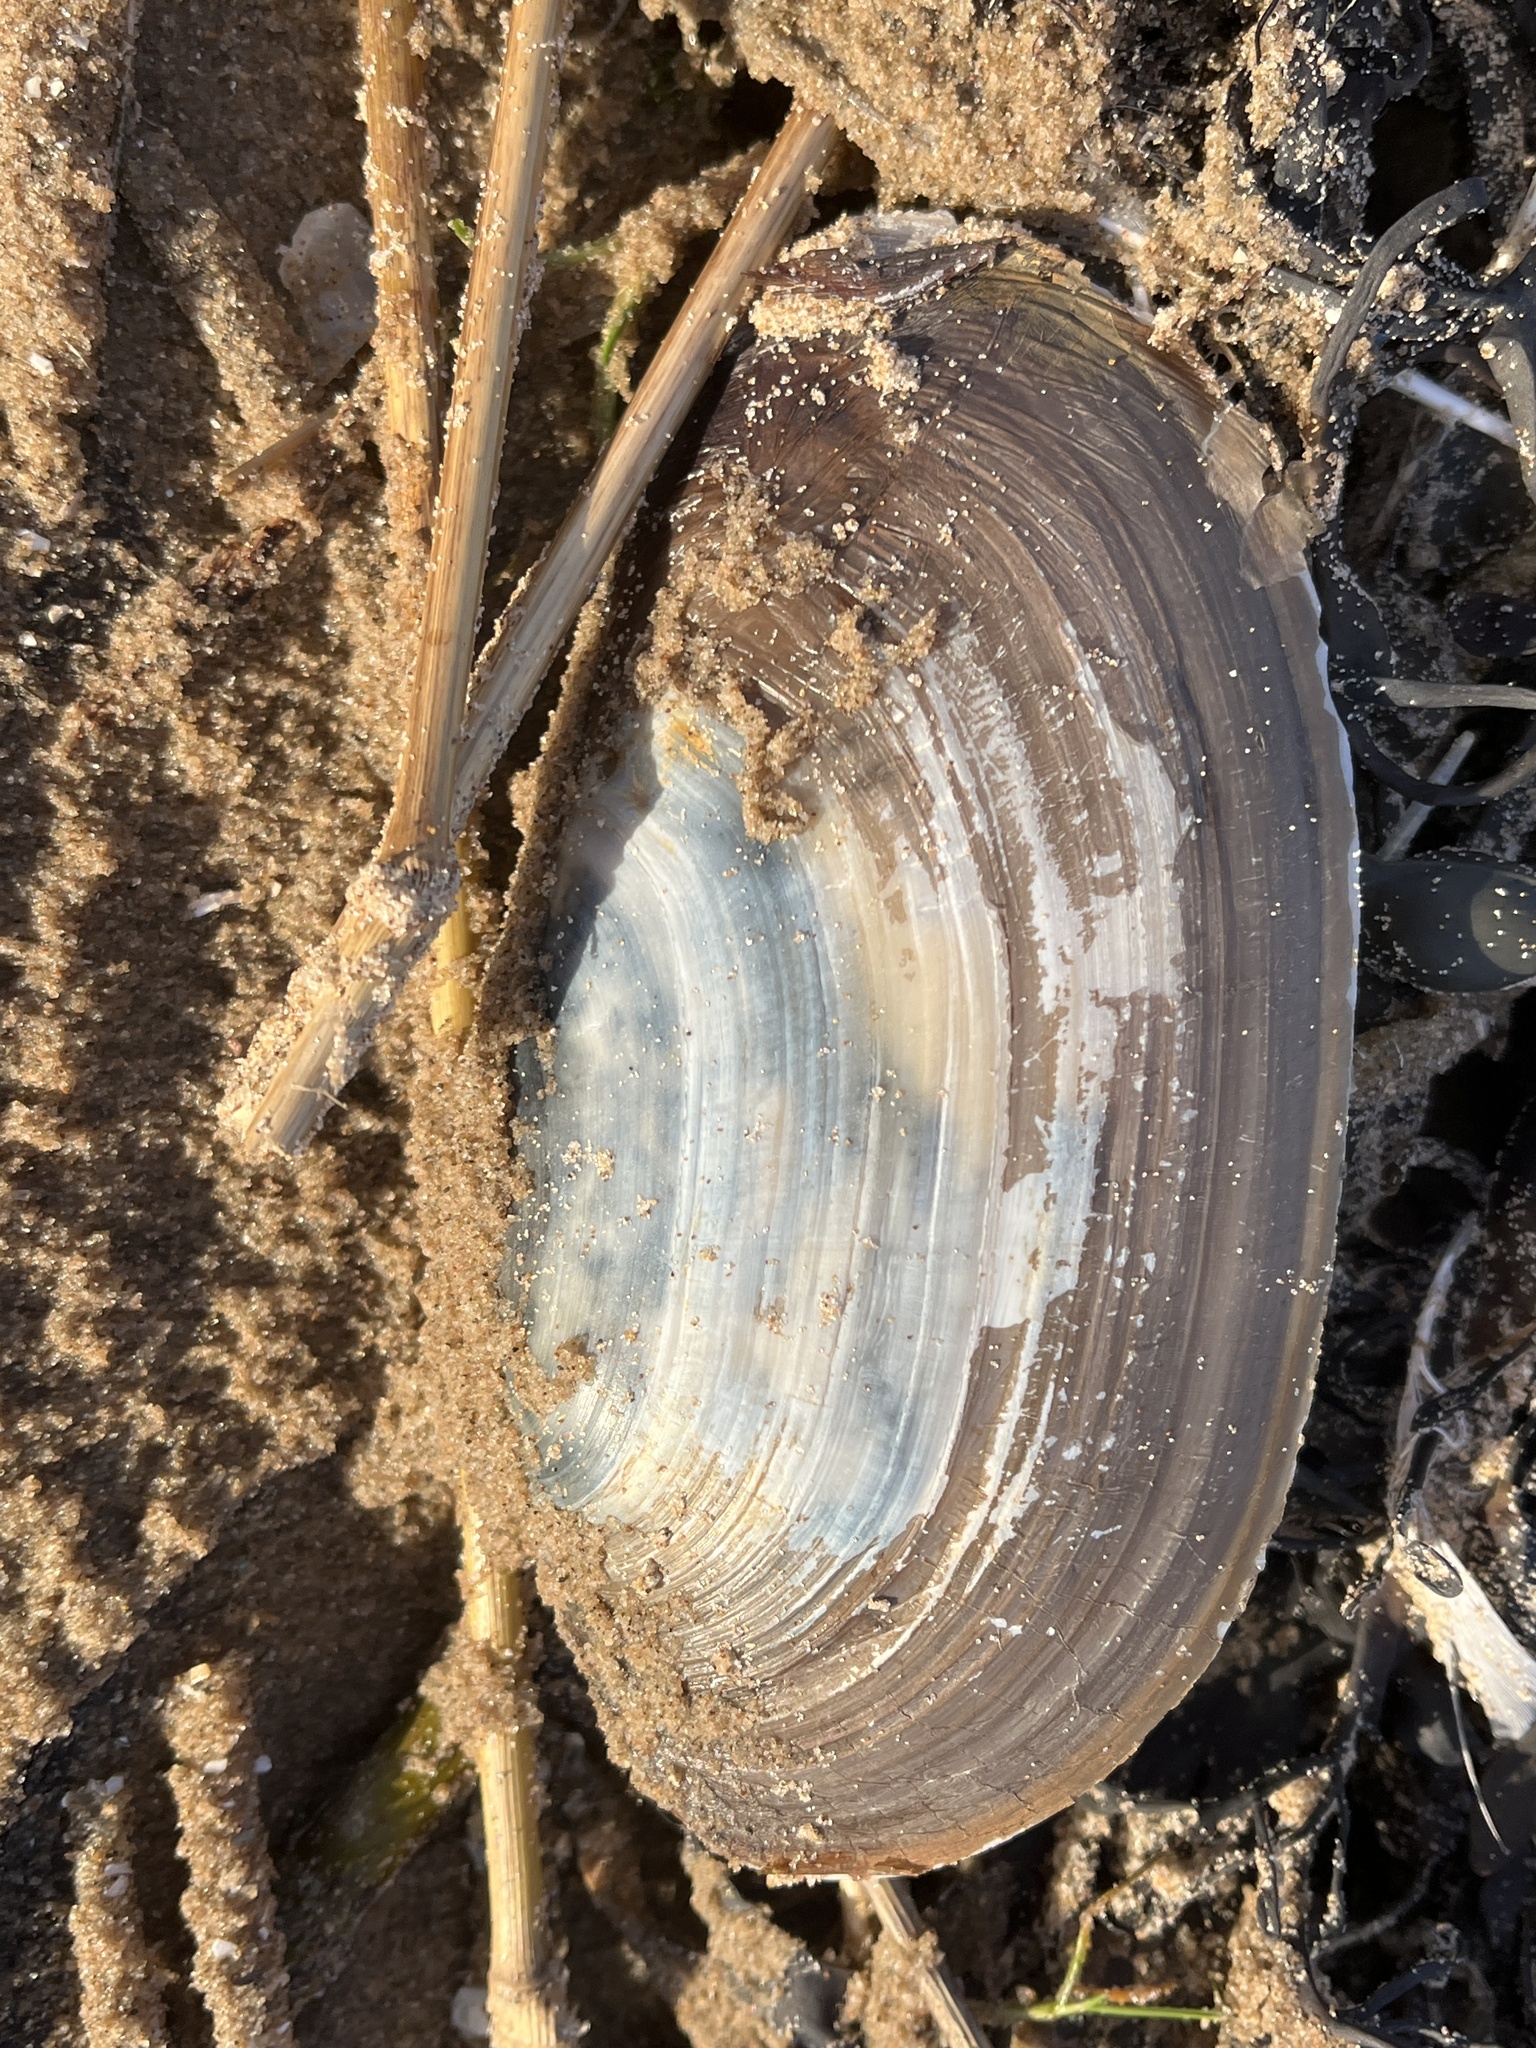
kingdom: Animalia
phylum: Mollusca
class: Bivalvia
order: Venerida
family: Mactridae
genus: Lutraria
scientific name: Lutraria lutraria
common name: Common otter shell
